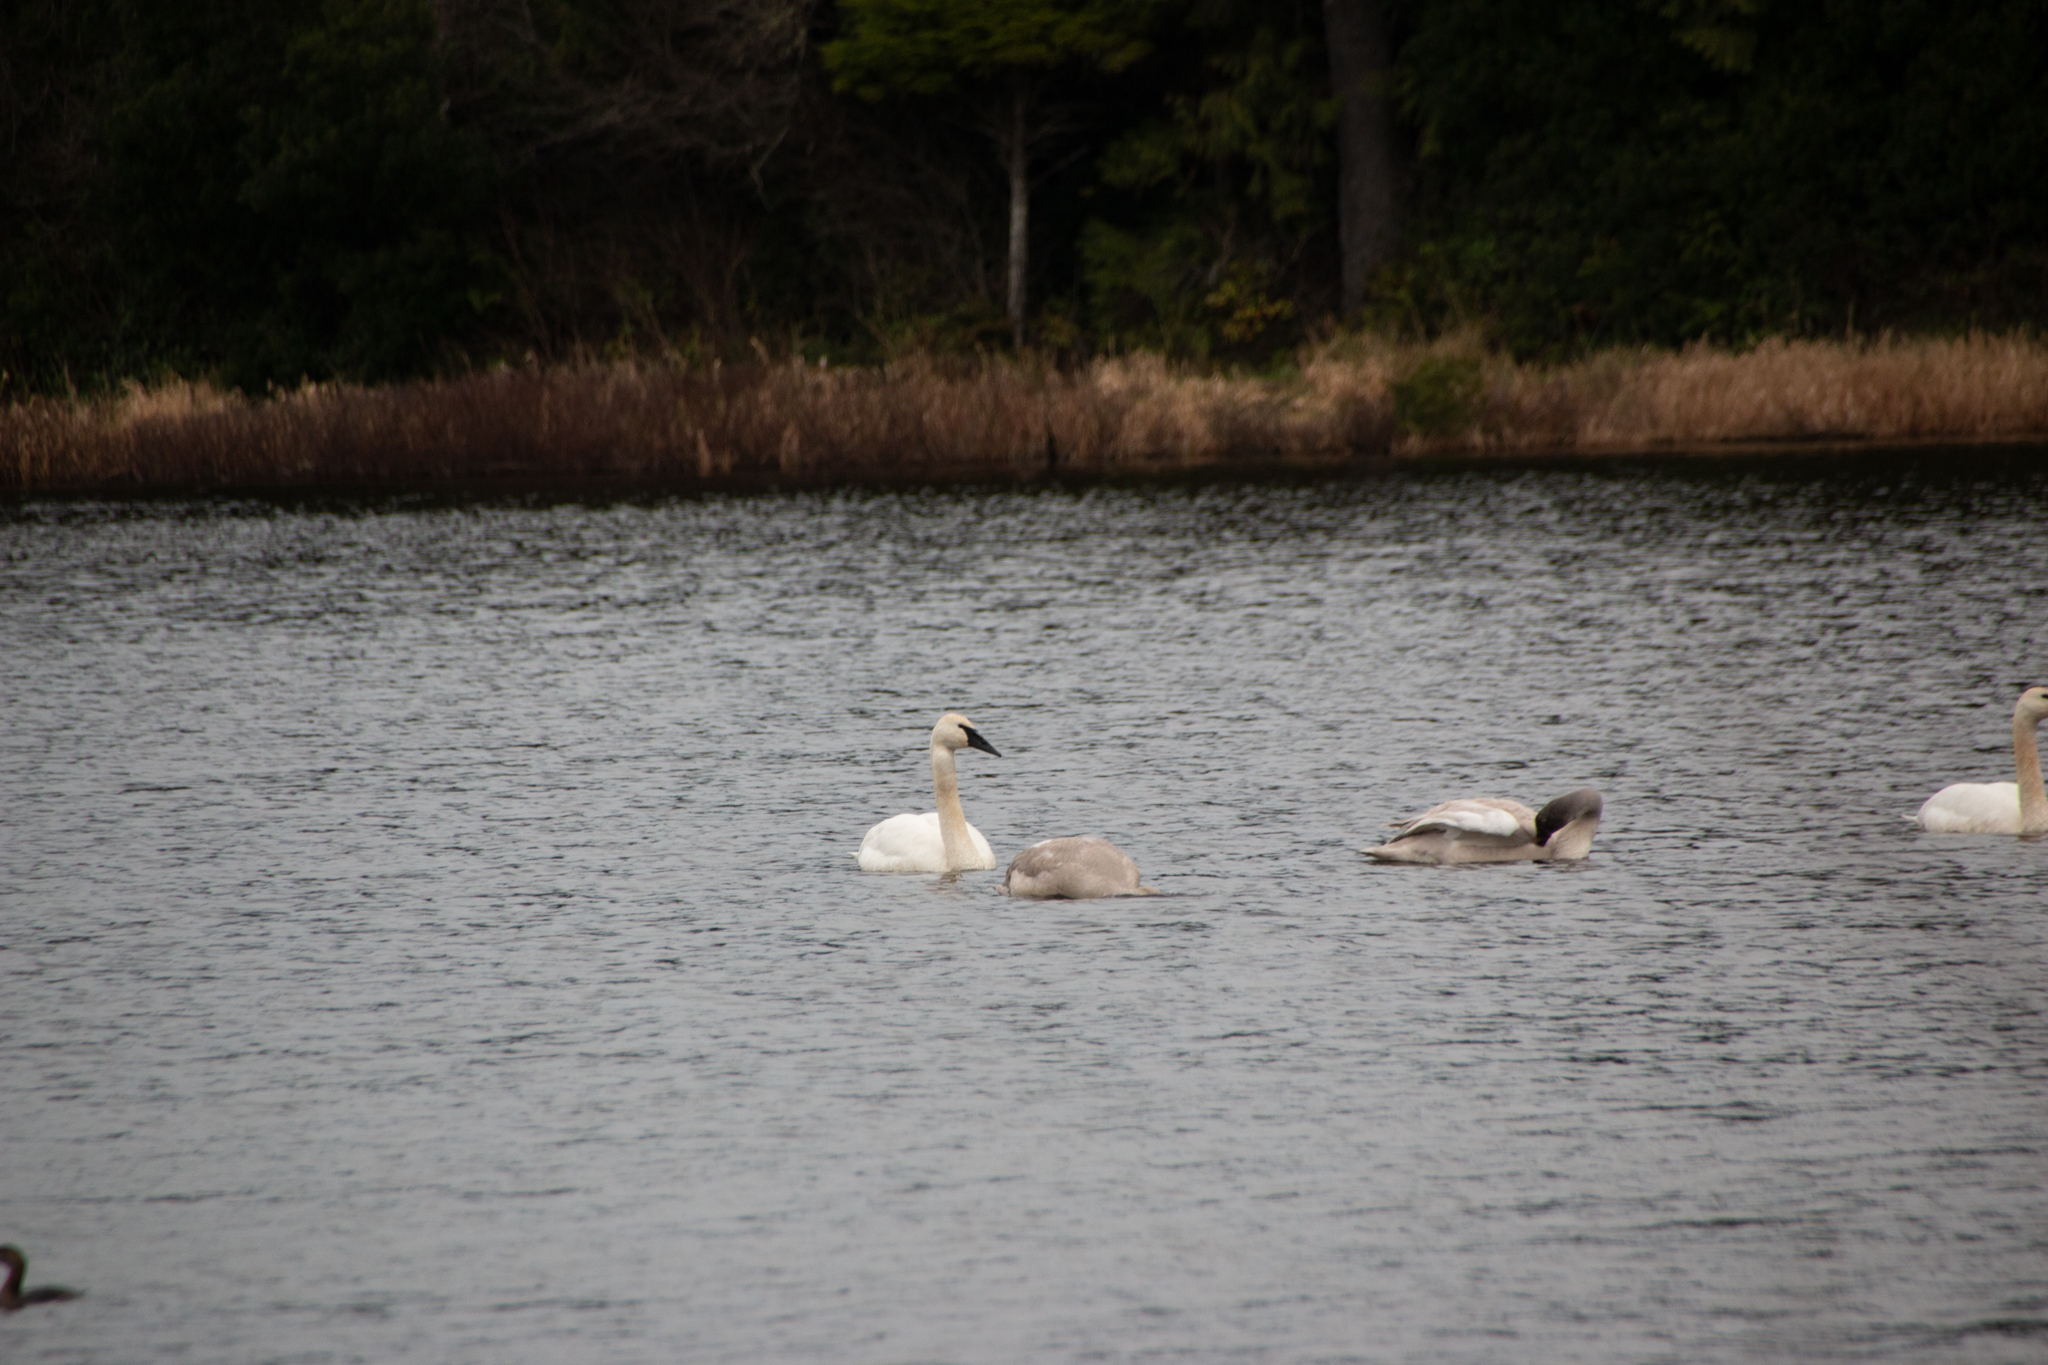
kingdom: Animalia
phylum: Chordata
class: Aves
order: Anseriformes
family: Anatidae
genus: Cygnus
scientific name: Cygnus buccinator
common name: Trumpeter swan
